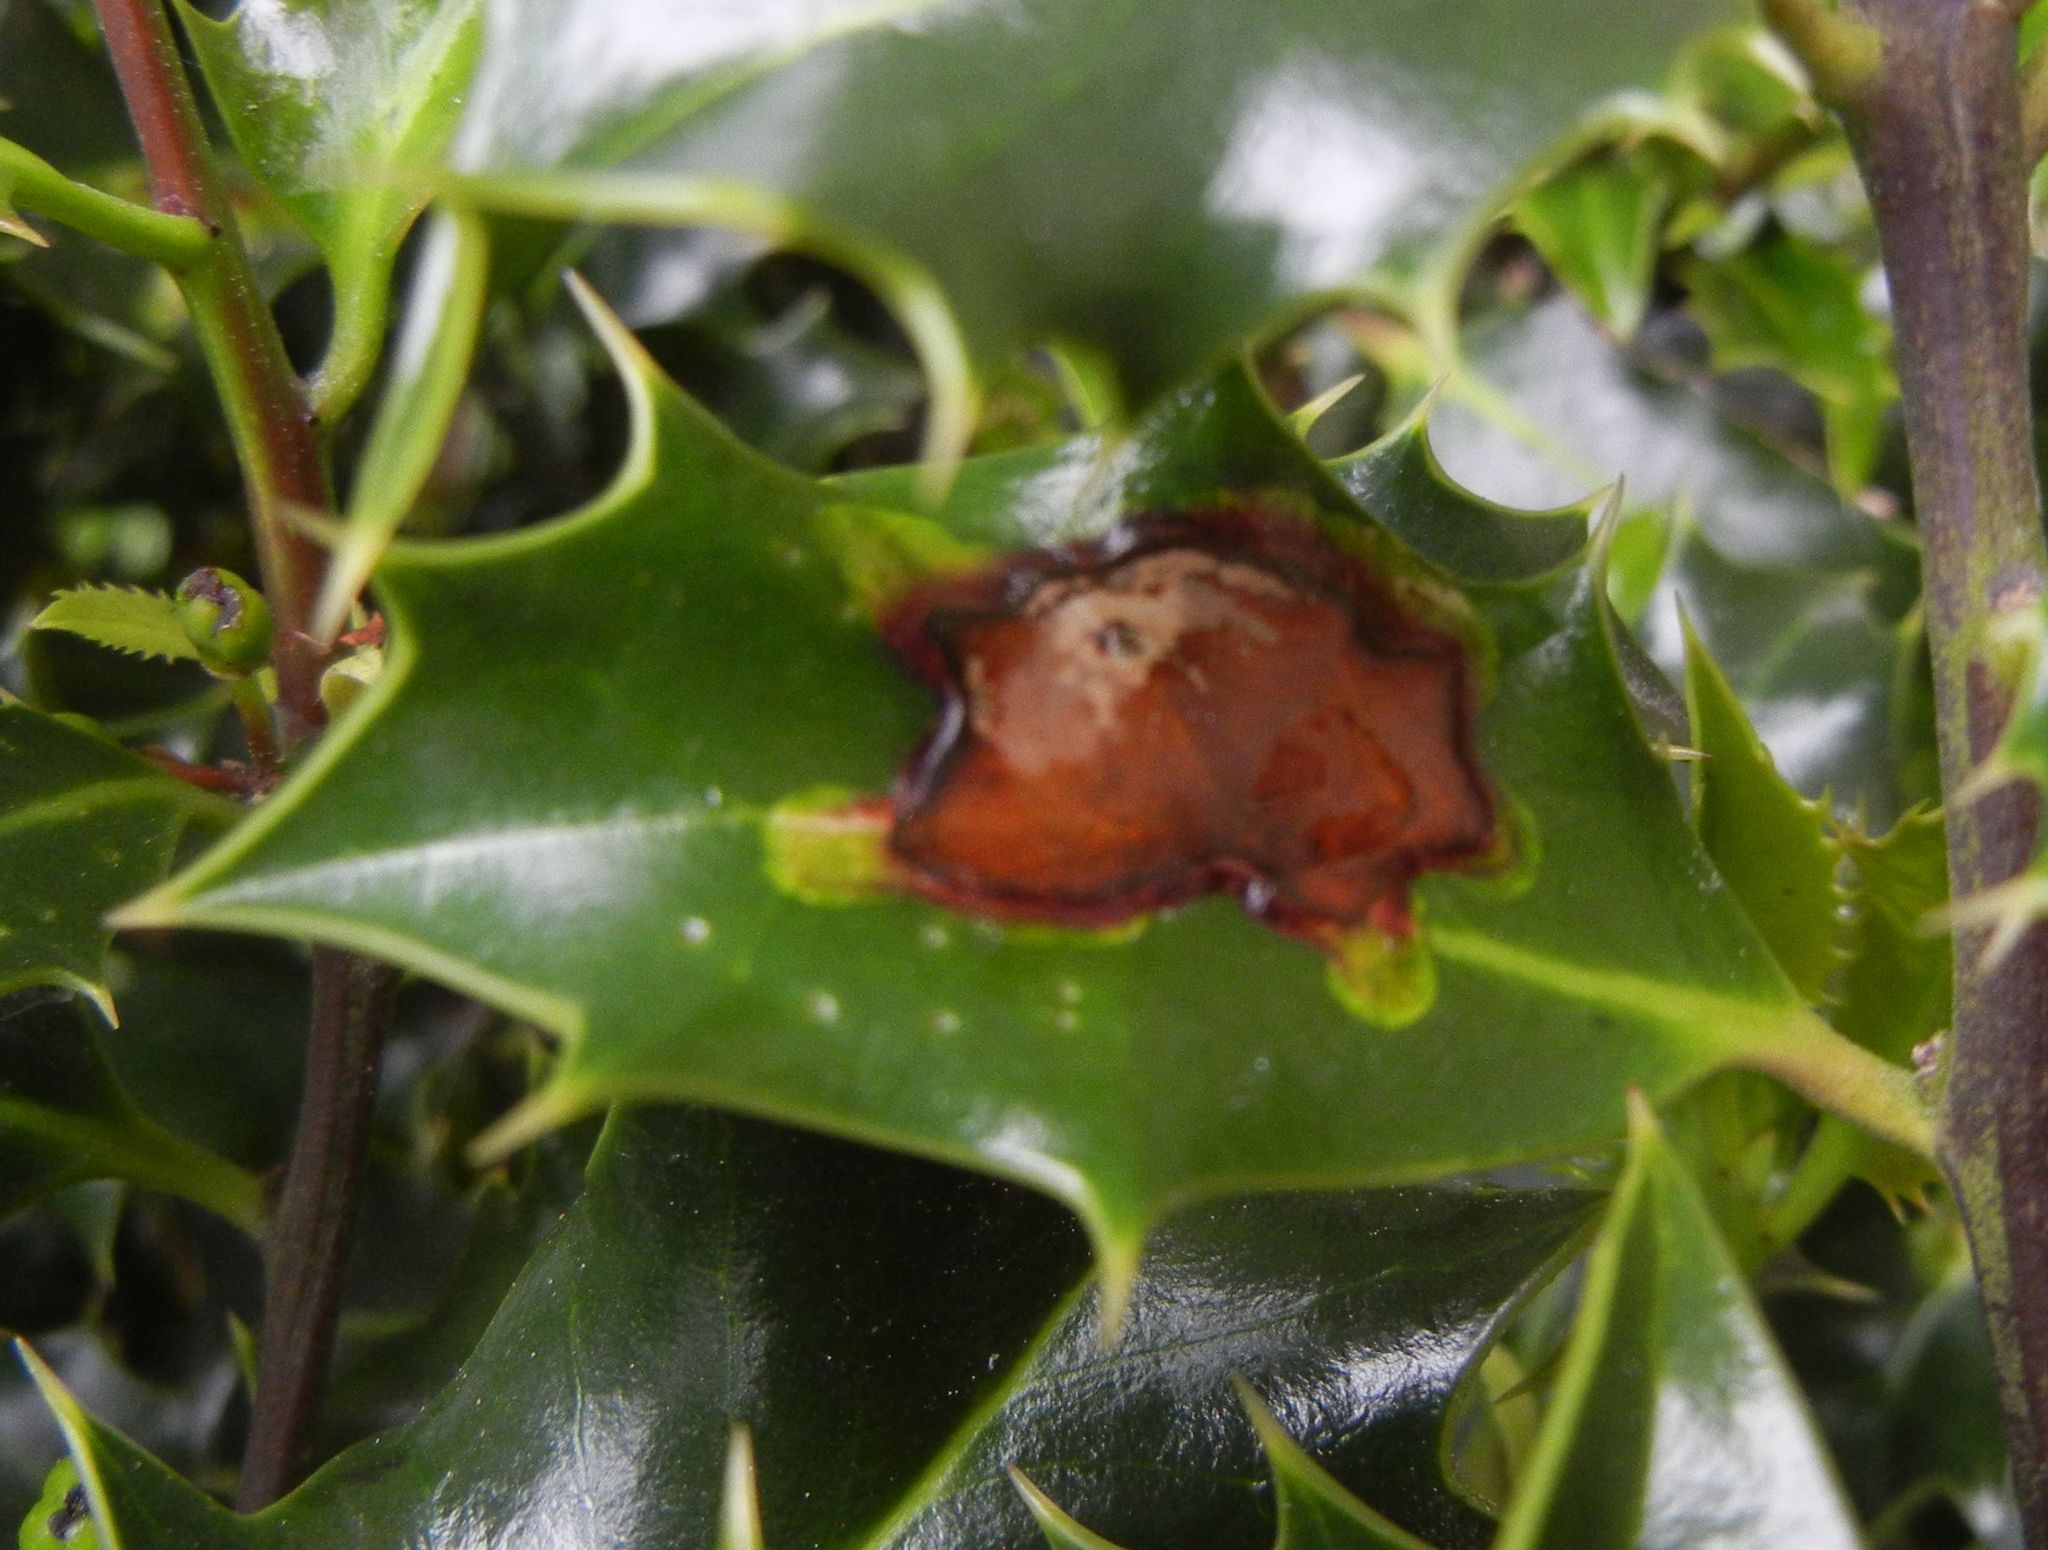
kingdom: Animalia
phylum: Arthropoda
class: Insecta
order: Diptera
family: Agromyzidae
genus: Phytomyza
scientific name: Phytomyza ilicis
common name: Holly leafminer
